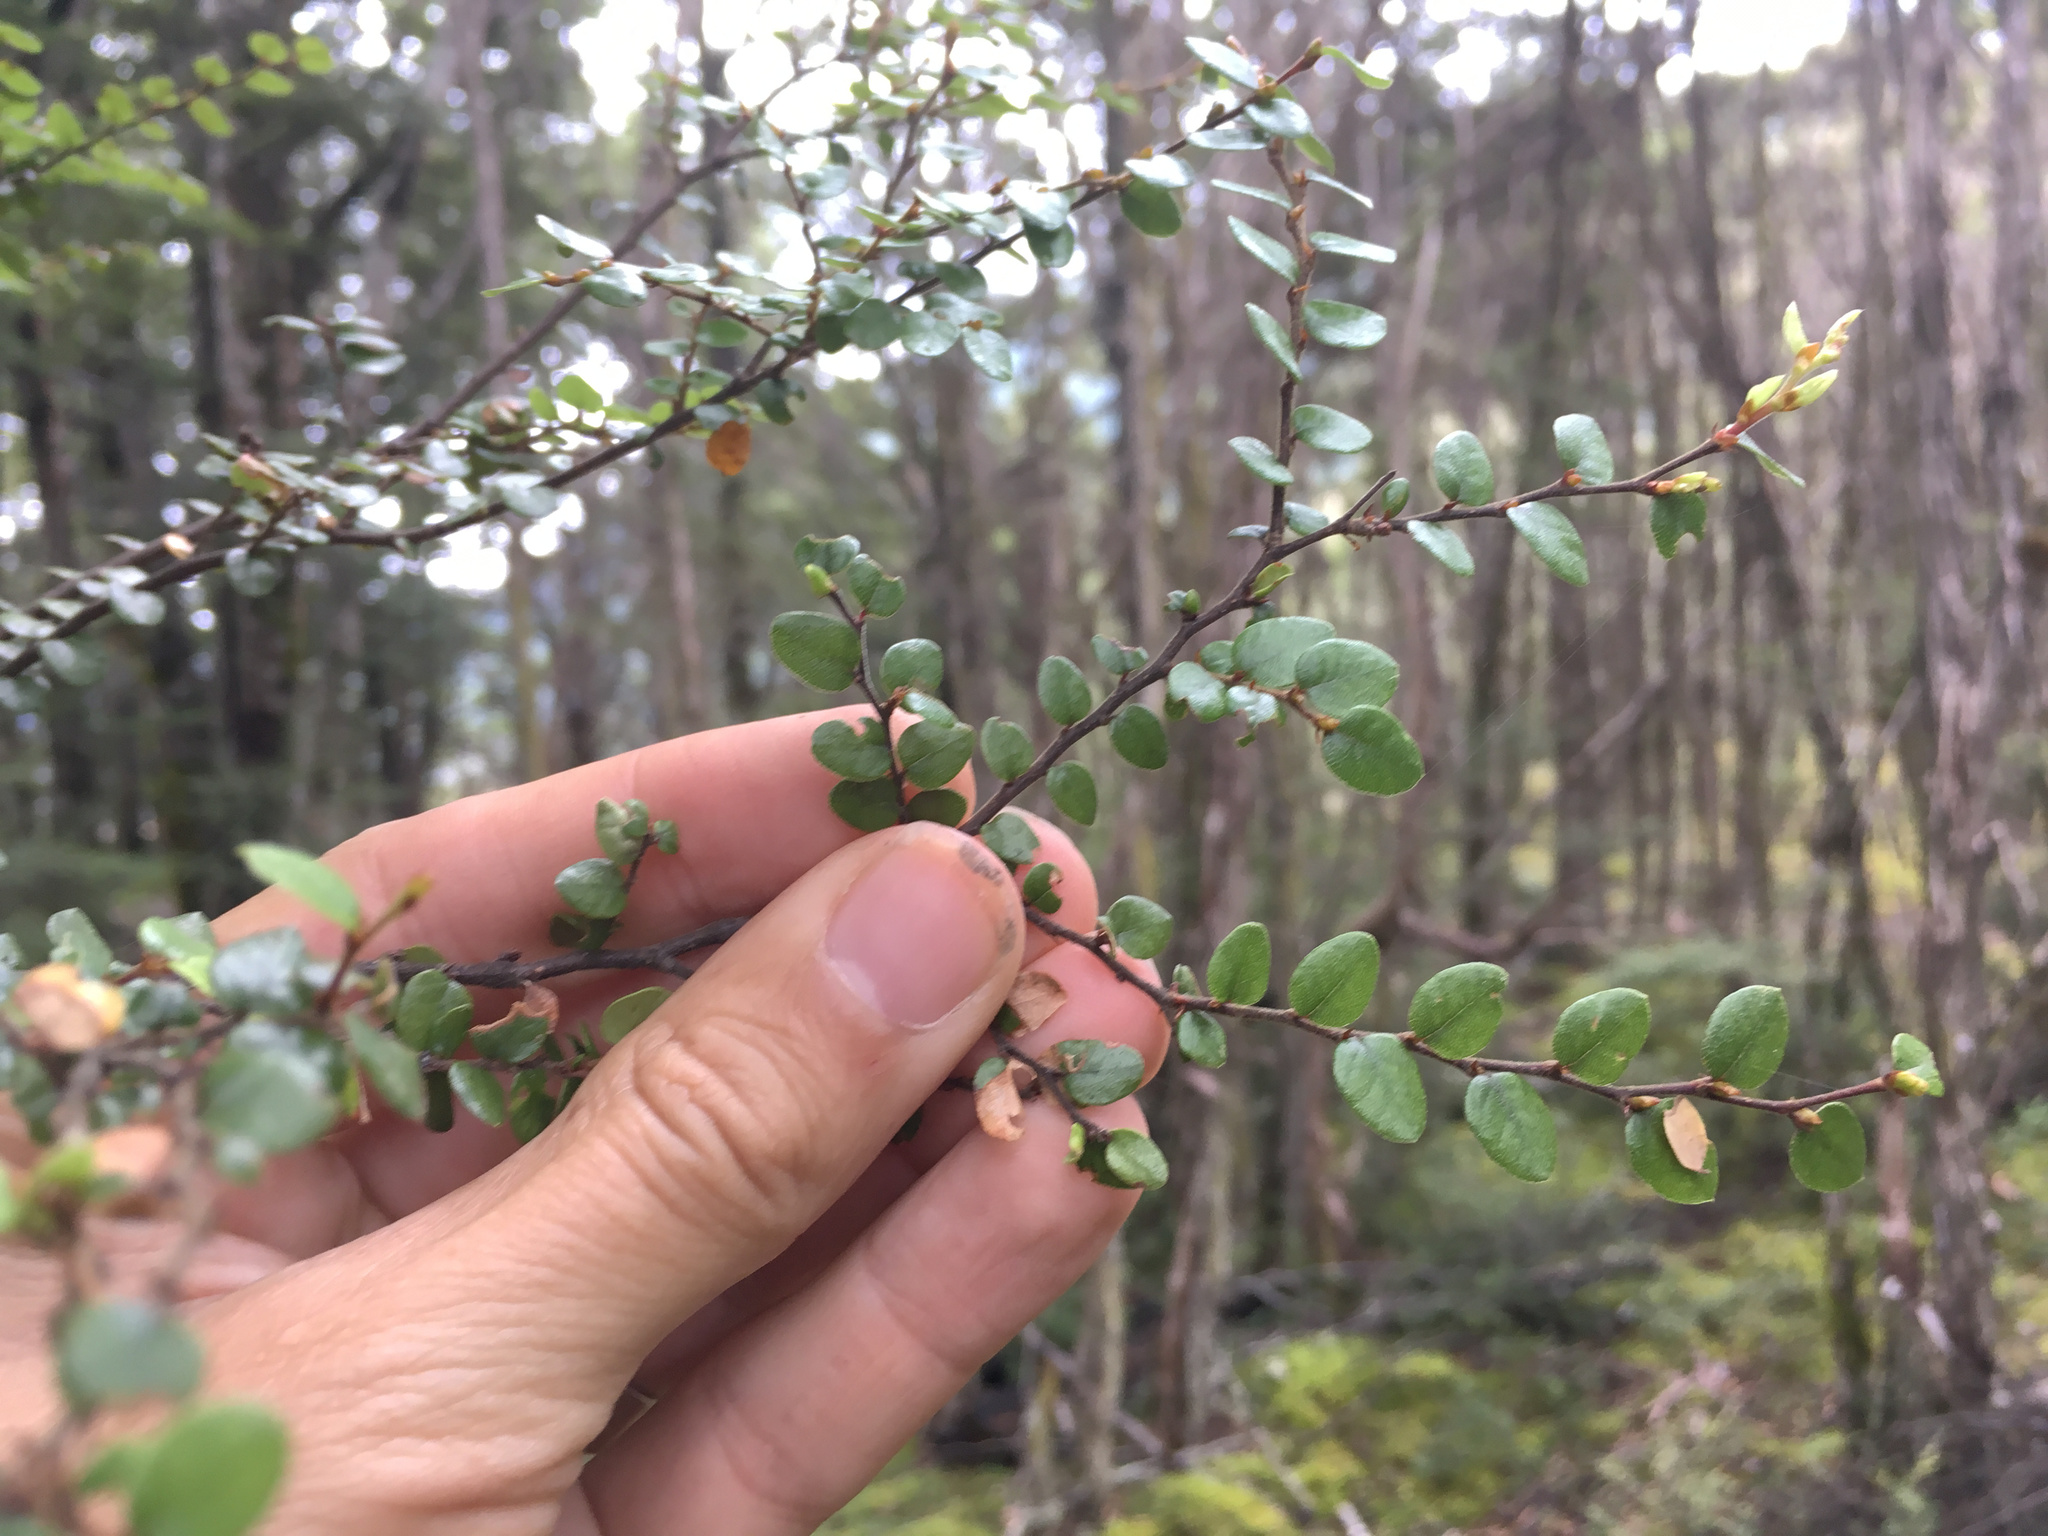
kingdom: Plantae
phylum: Tracheophyta
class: Magnoliopsida
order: Fagales
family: Nothofagaceae
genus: Nothofagus
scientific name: Nothofagus cliffortioides
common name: Mountain beech
